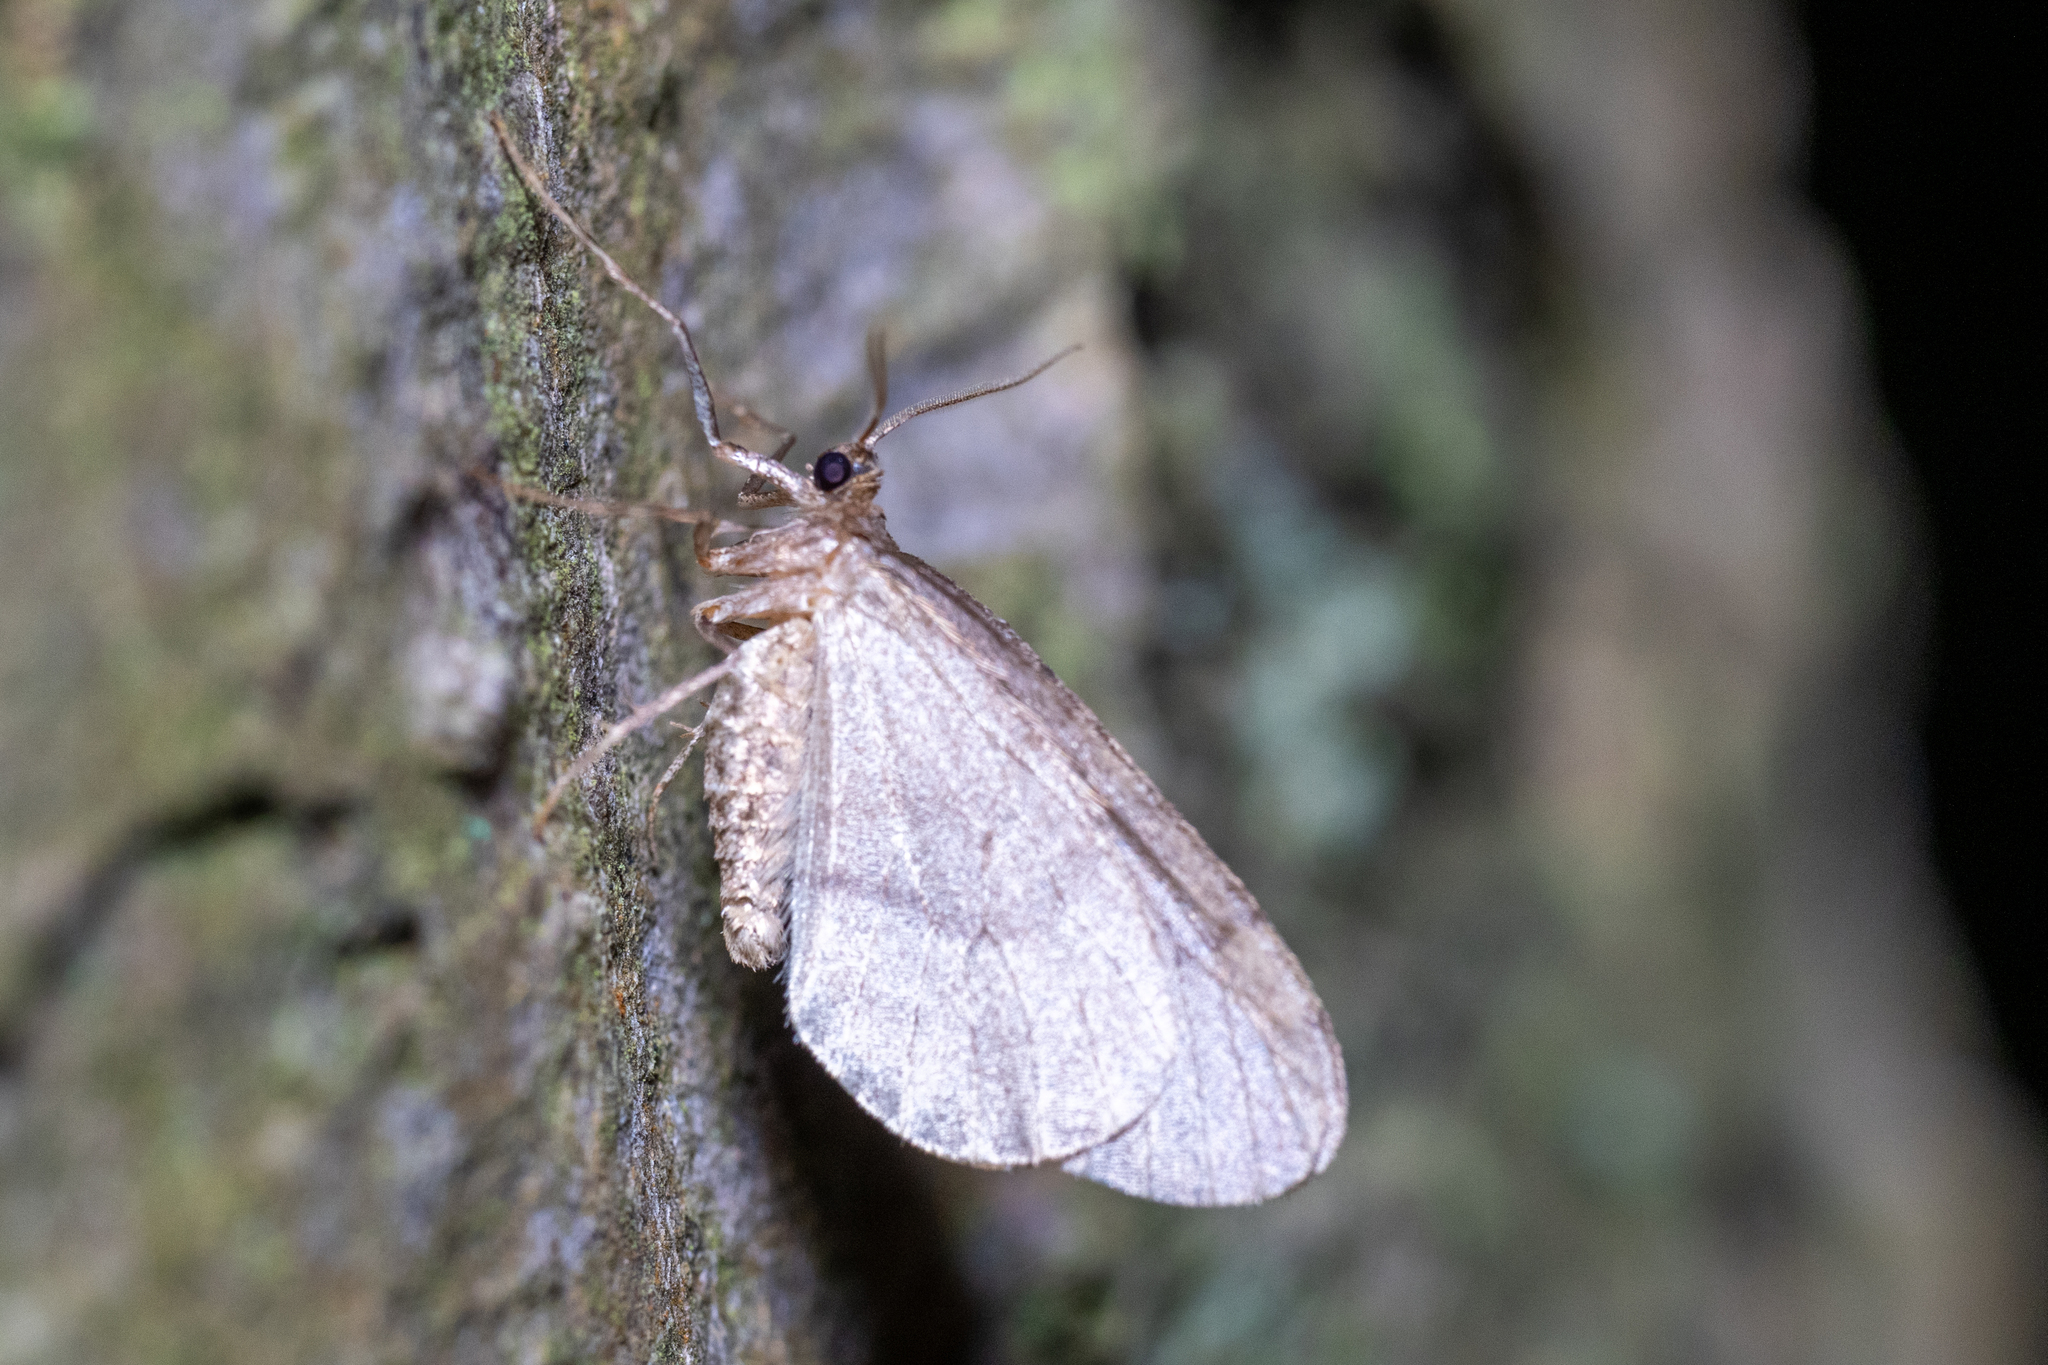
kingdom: Animalia
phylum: Arthropoda
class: Insecta
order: Lepidoptera
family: Geometridae
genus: Operophtera
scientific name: Operophtera brumata
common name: Winter moth
